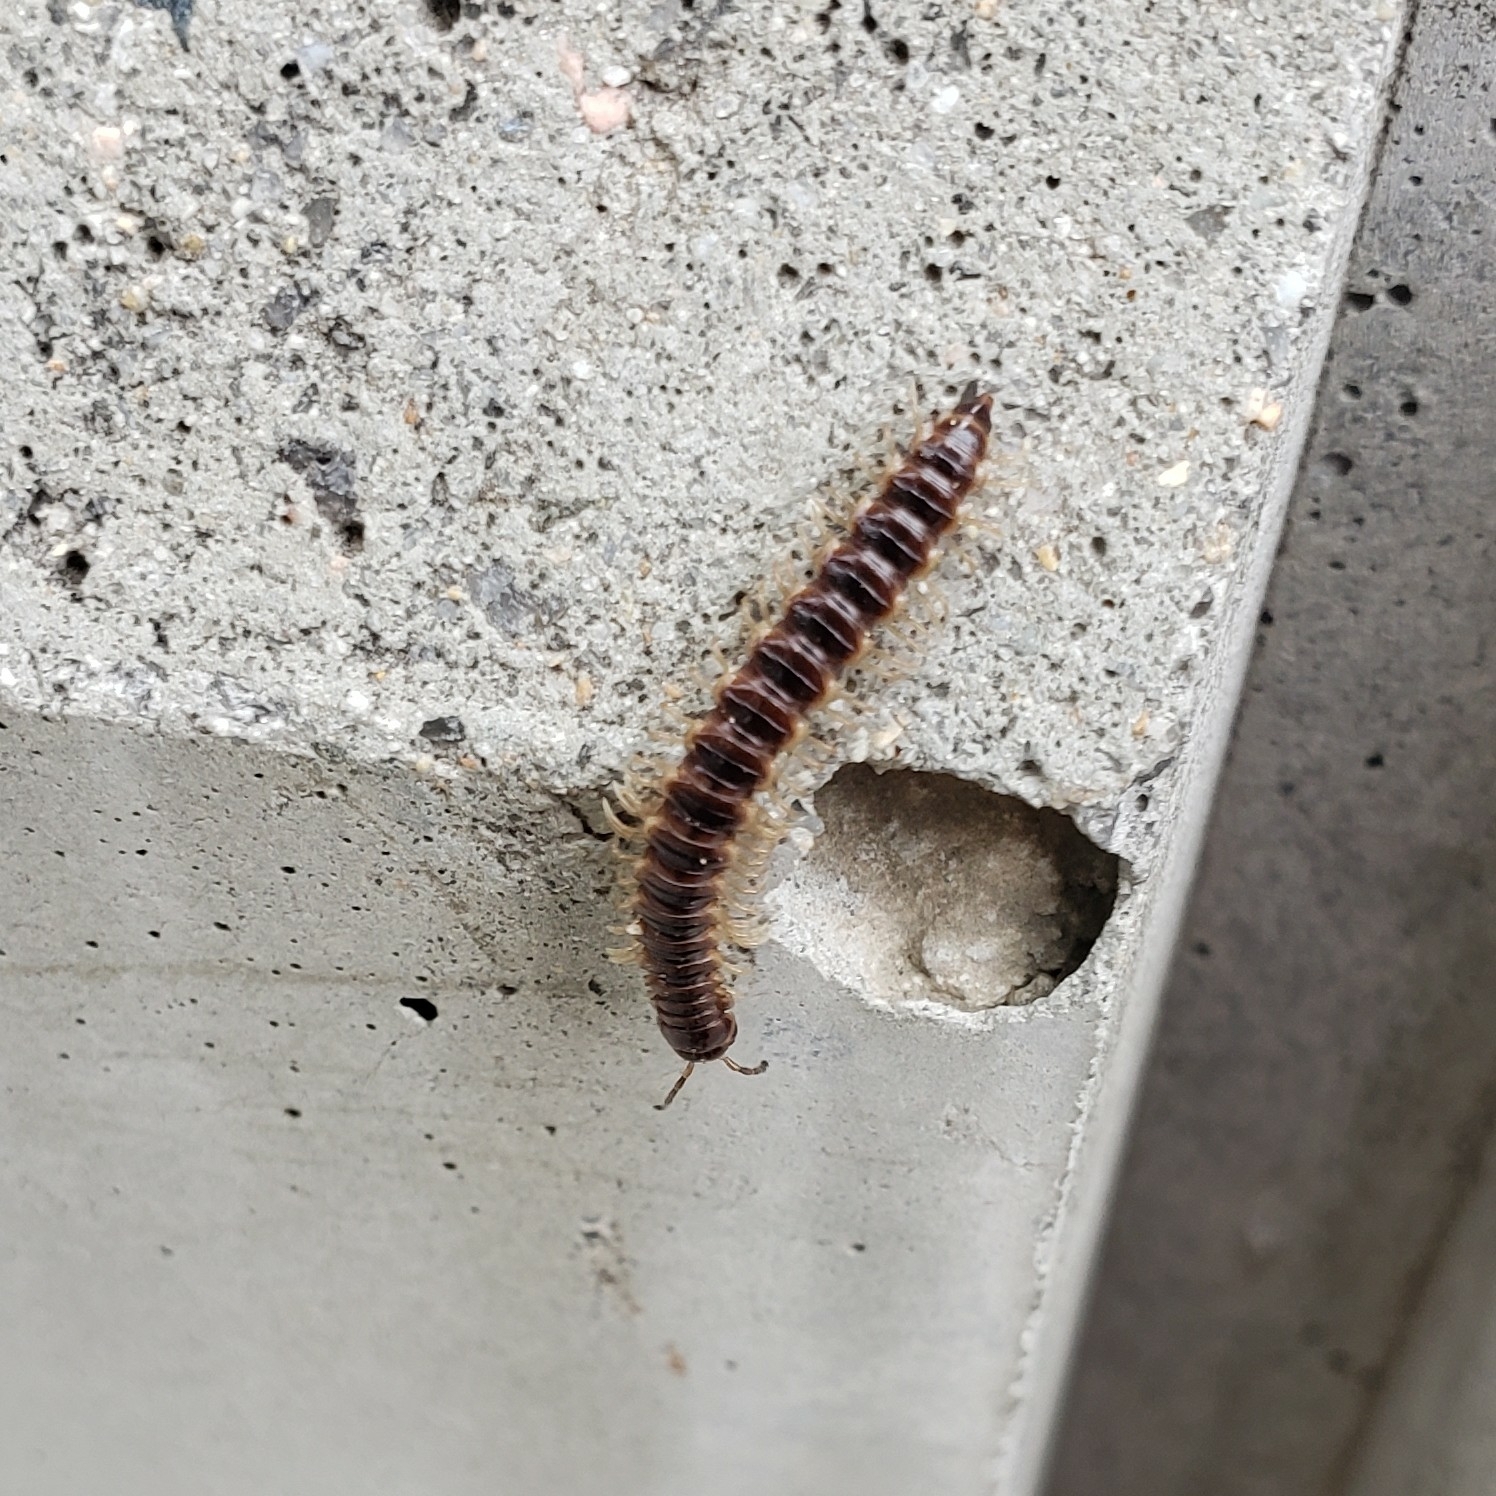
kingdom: Animalia
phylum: Arthropoda
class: Diplopoda
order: Polydesmida
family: Paradoxosomatidae
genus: Oxidus
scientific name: Oxidus gracilis
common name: Greenhouse millipede
